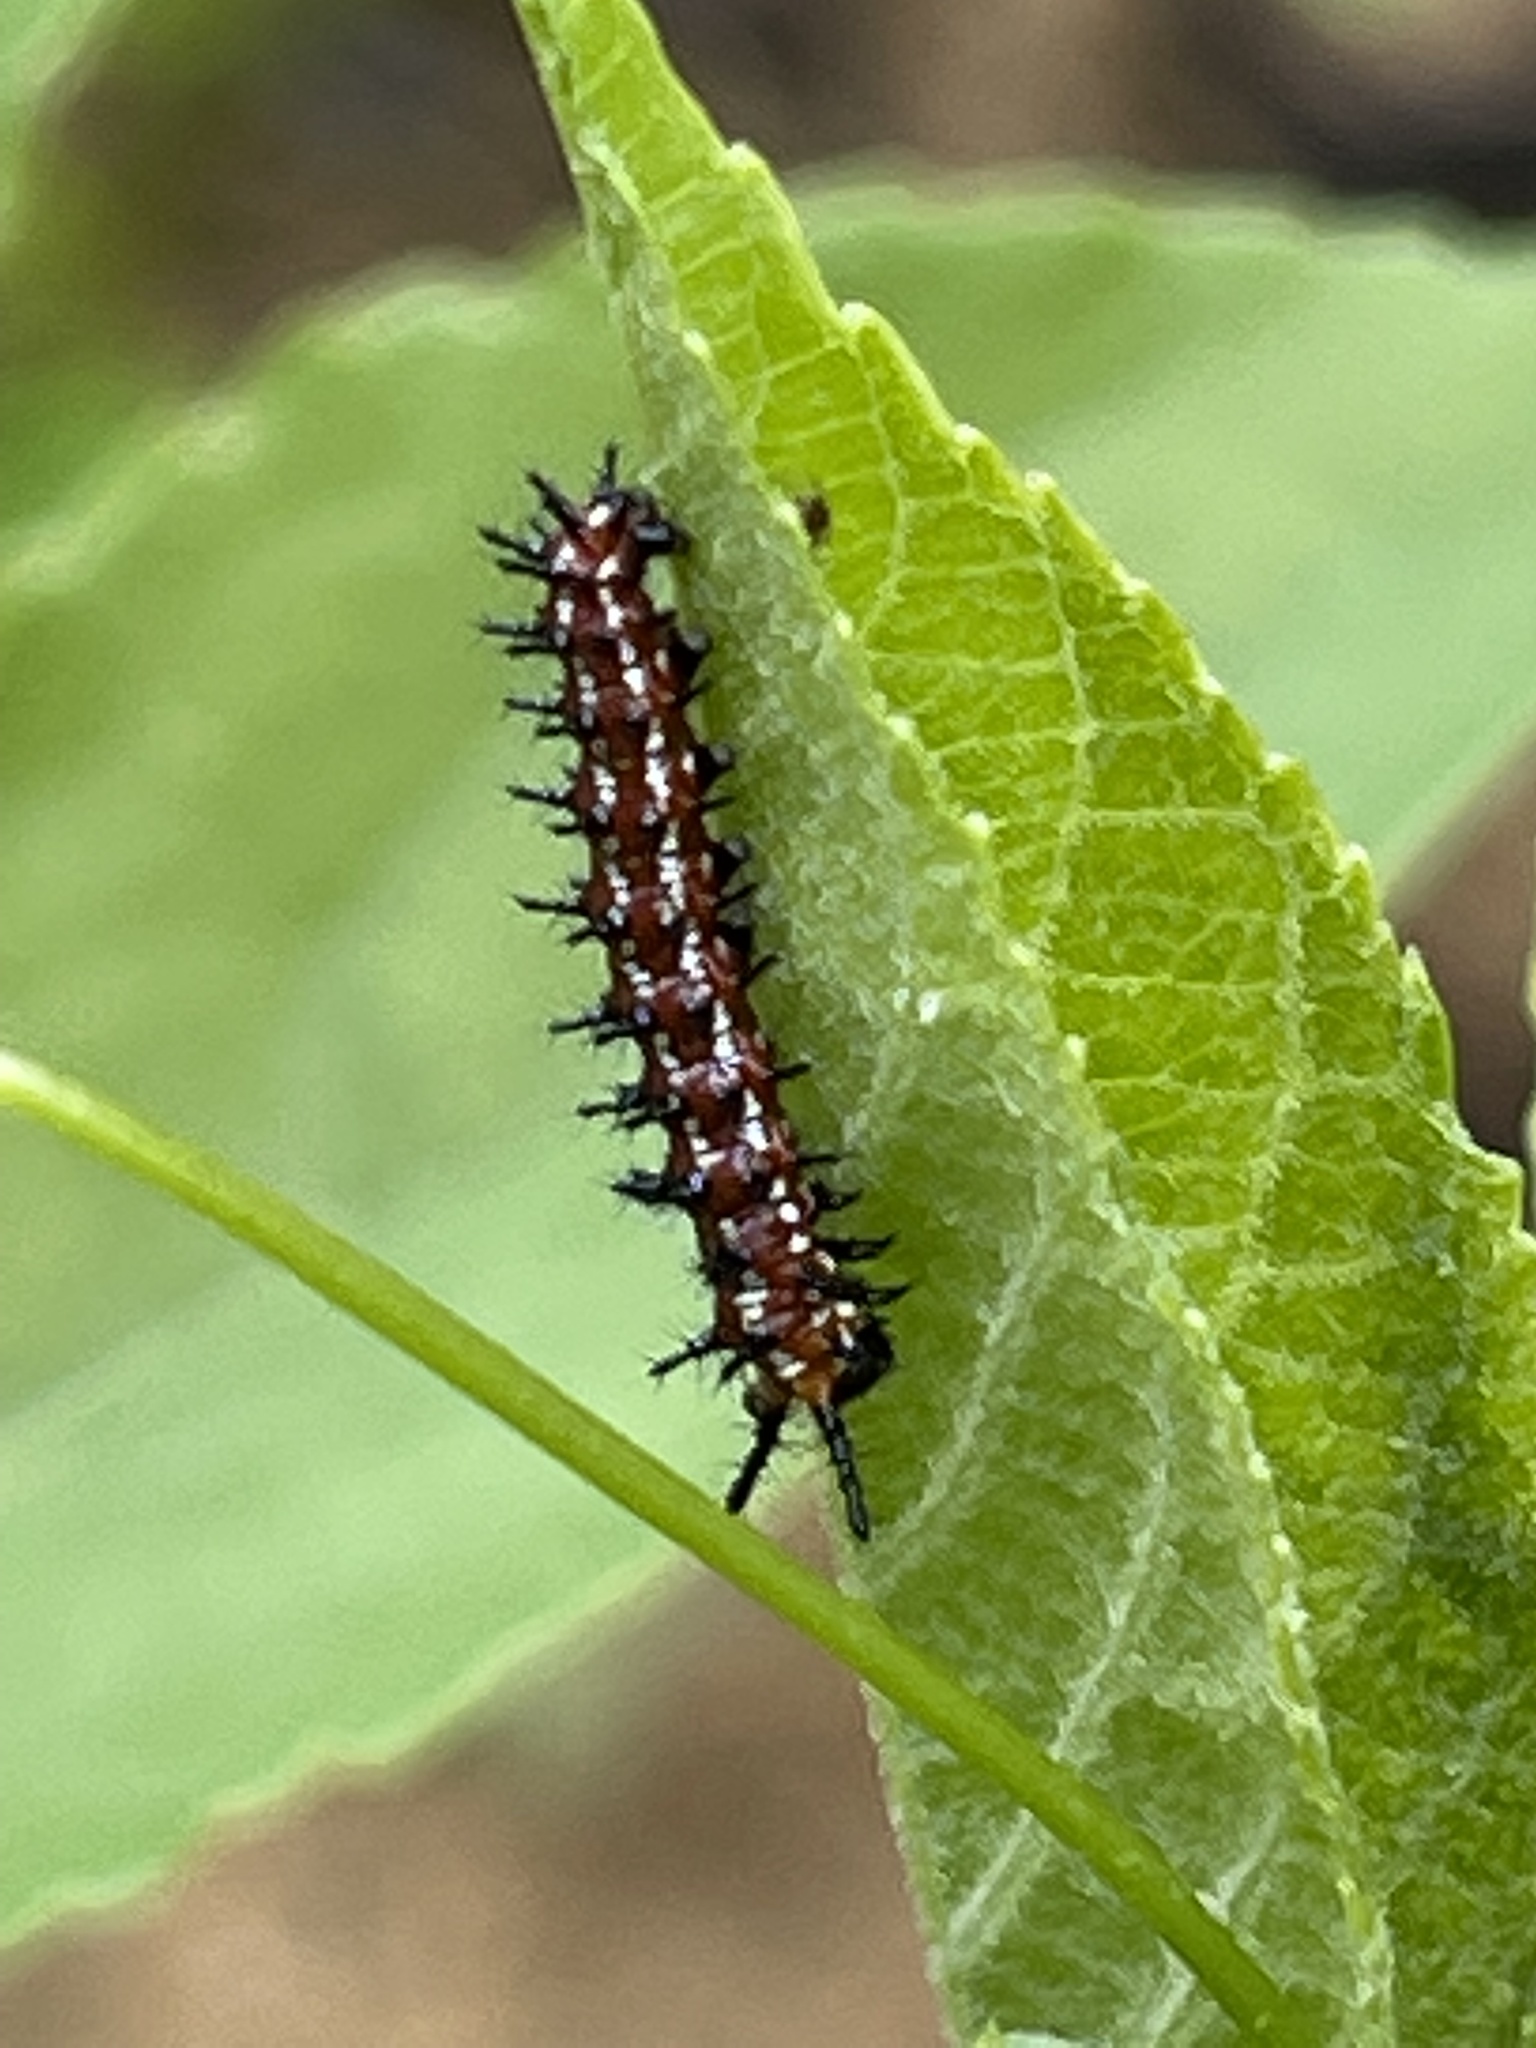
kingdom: Animalia
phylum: Arthropoda
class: Insecta
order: Lepidoptera
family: Nymphalidae
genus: Euptoieta
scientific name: Euptoieta claudia
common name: Variegated fritillary
